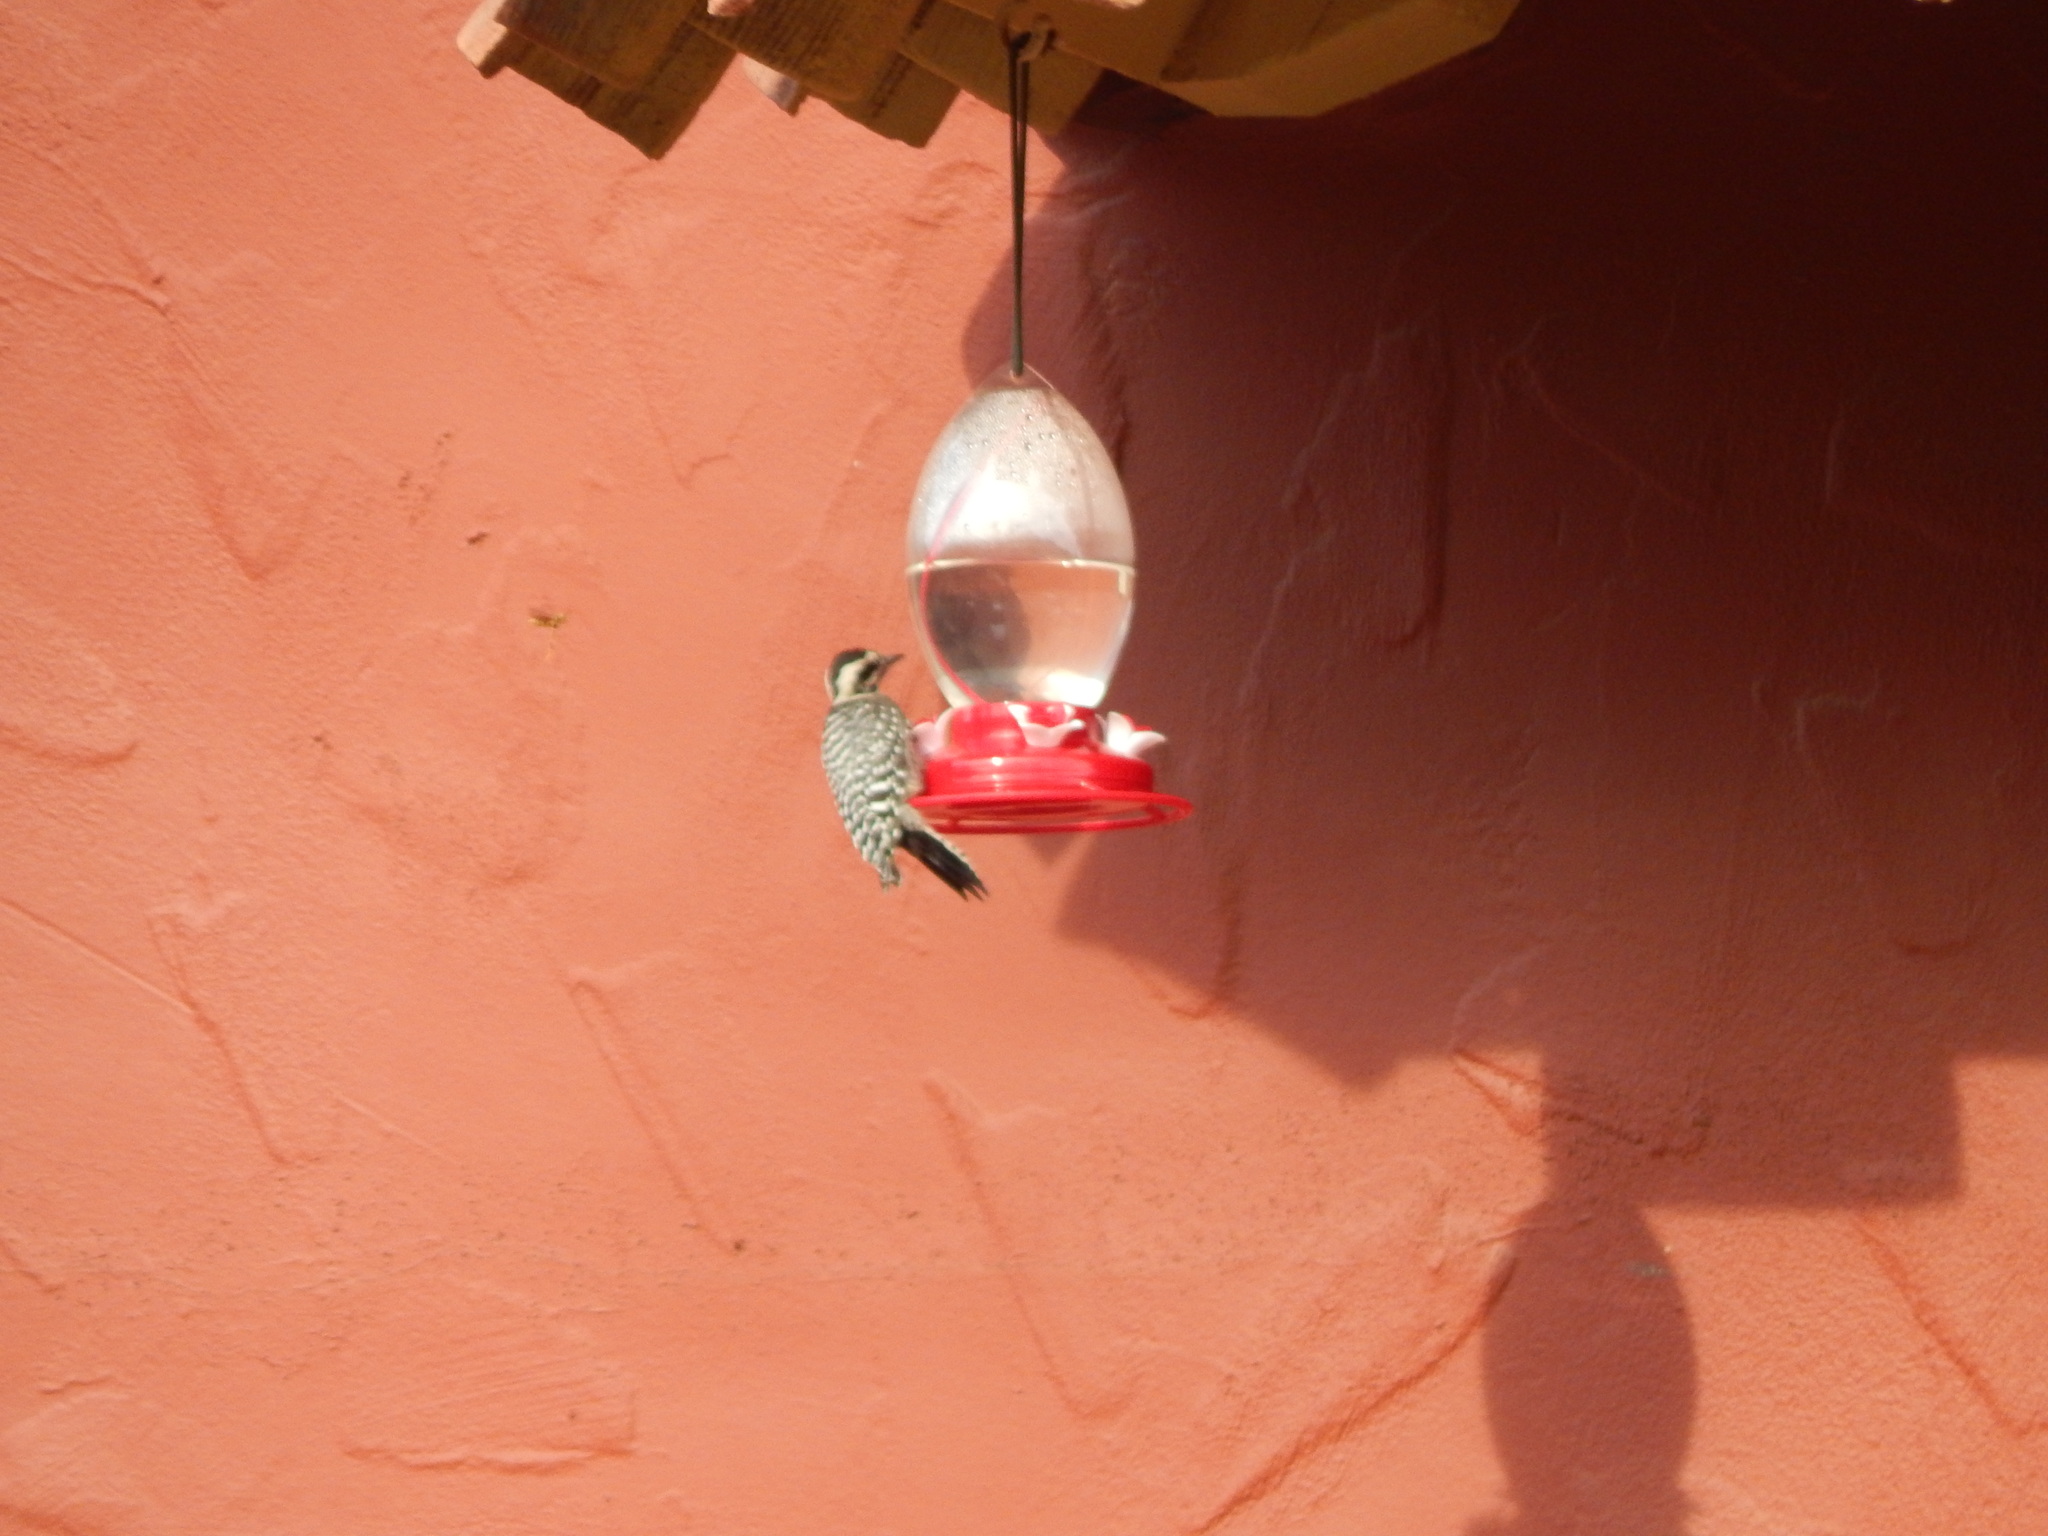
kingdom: Animalia
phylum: Chordata
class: Aves
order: Piciformes
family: Picidae
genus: Dryobates
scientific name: Dryobates scalaris
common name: Ladder-backed woodpecker
